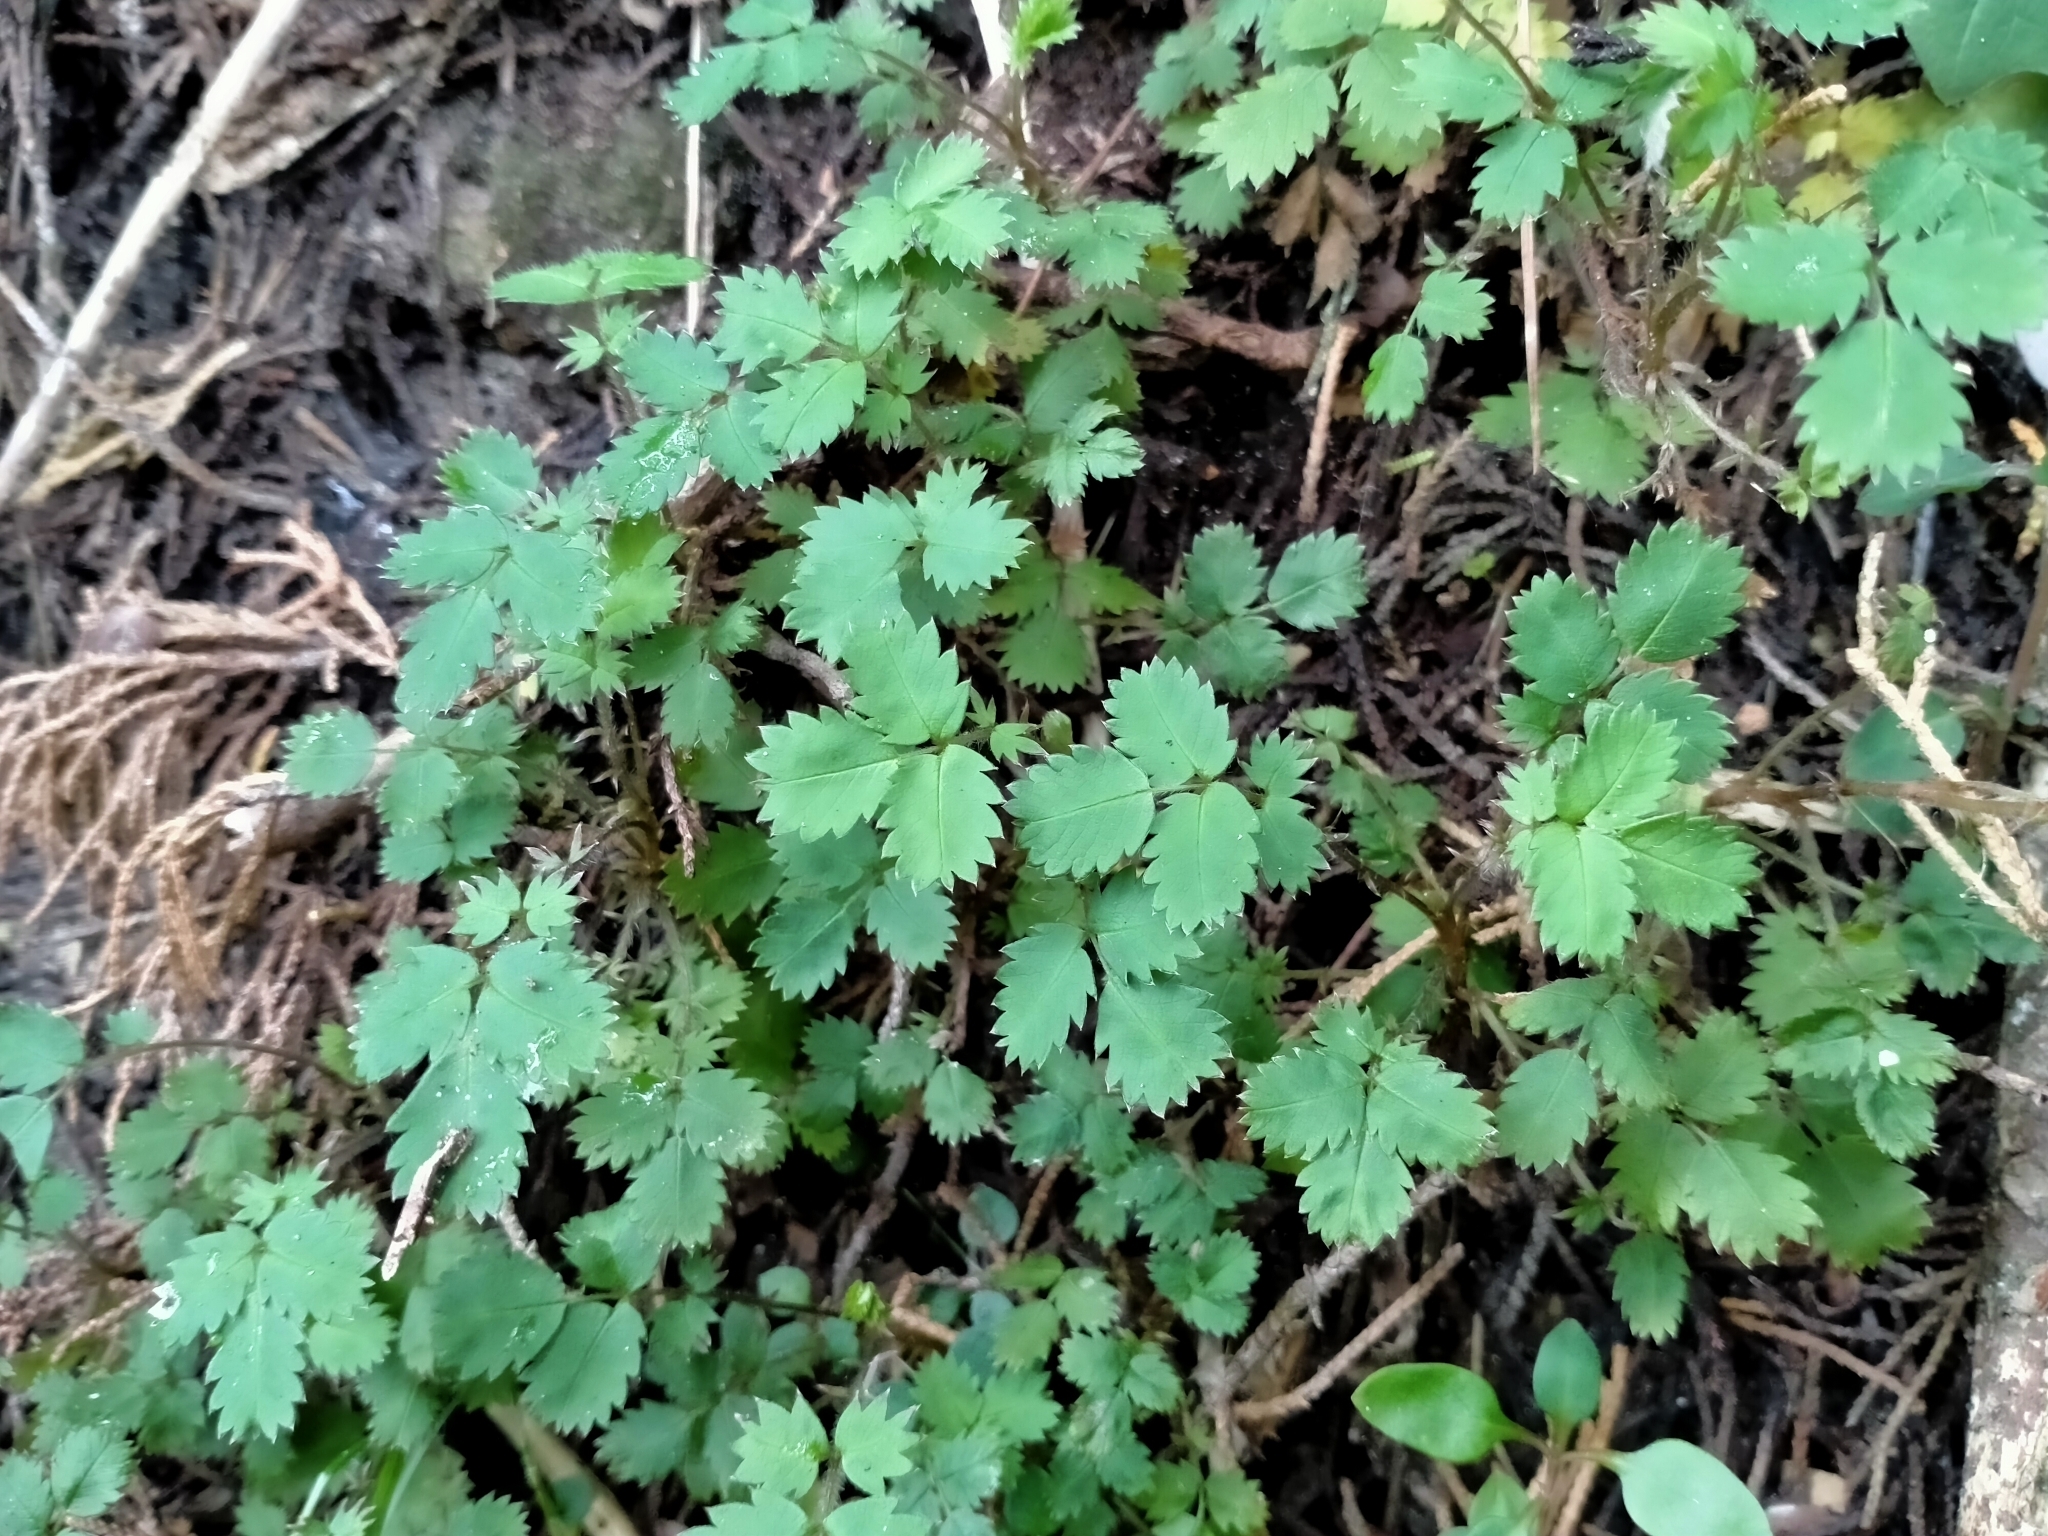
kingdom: Plantae
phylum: Tracheophyta
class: Magnoliopsida
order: Rosales
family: Rosaceae
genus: Acaena
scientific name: Acaena juvenca
